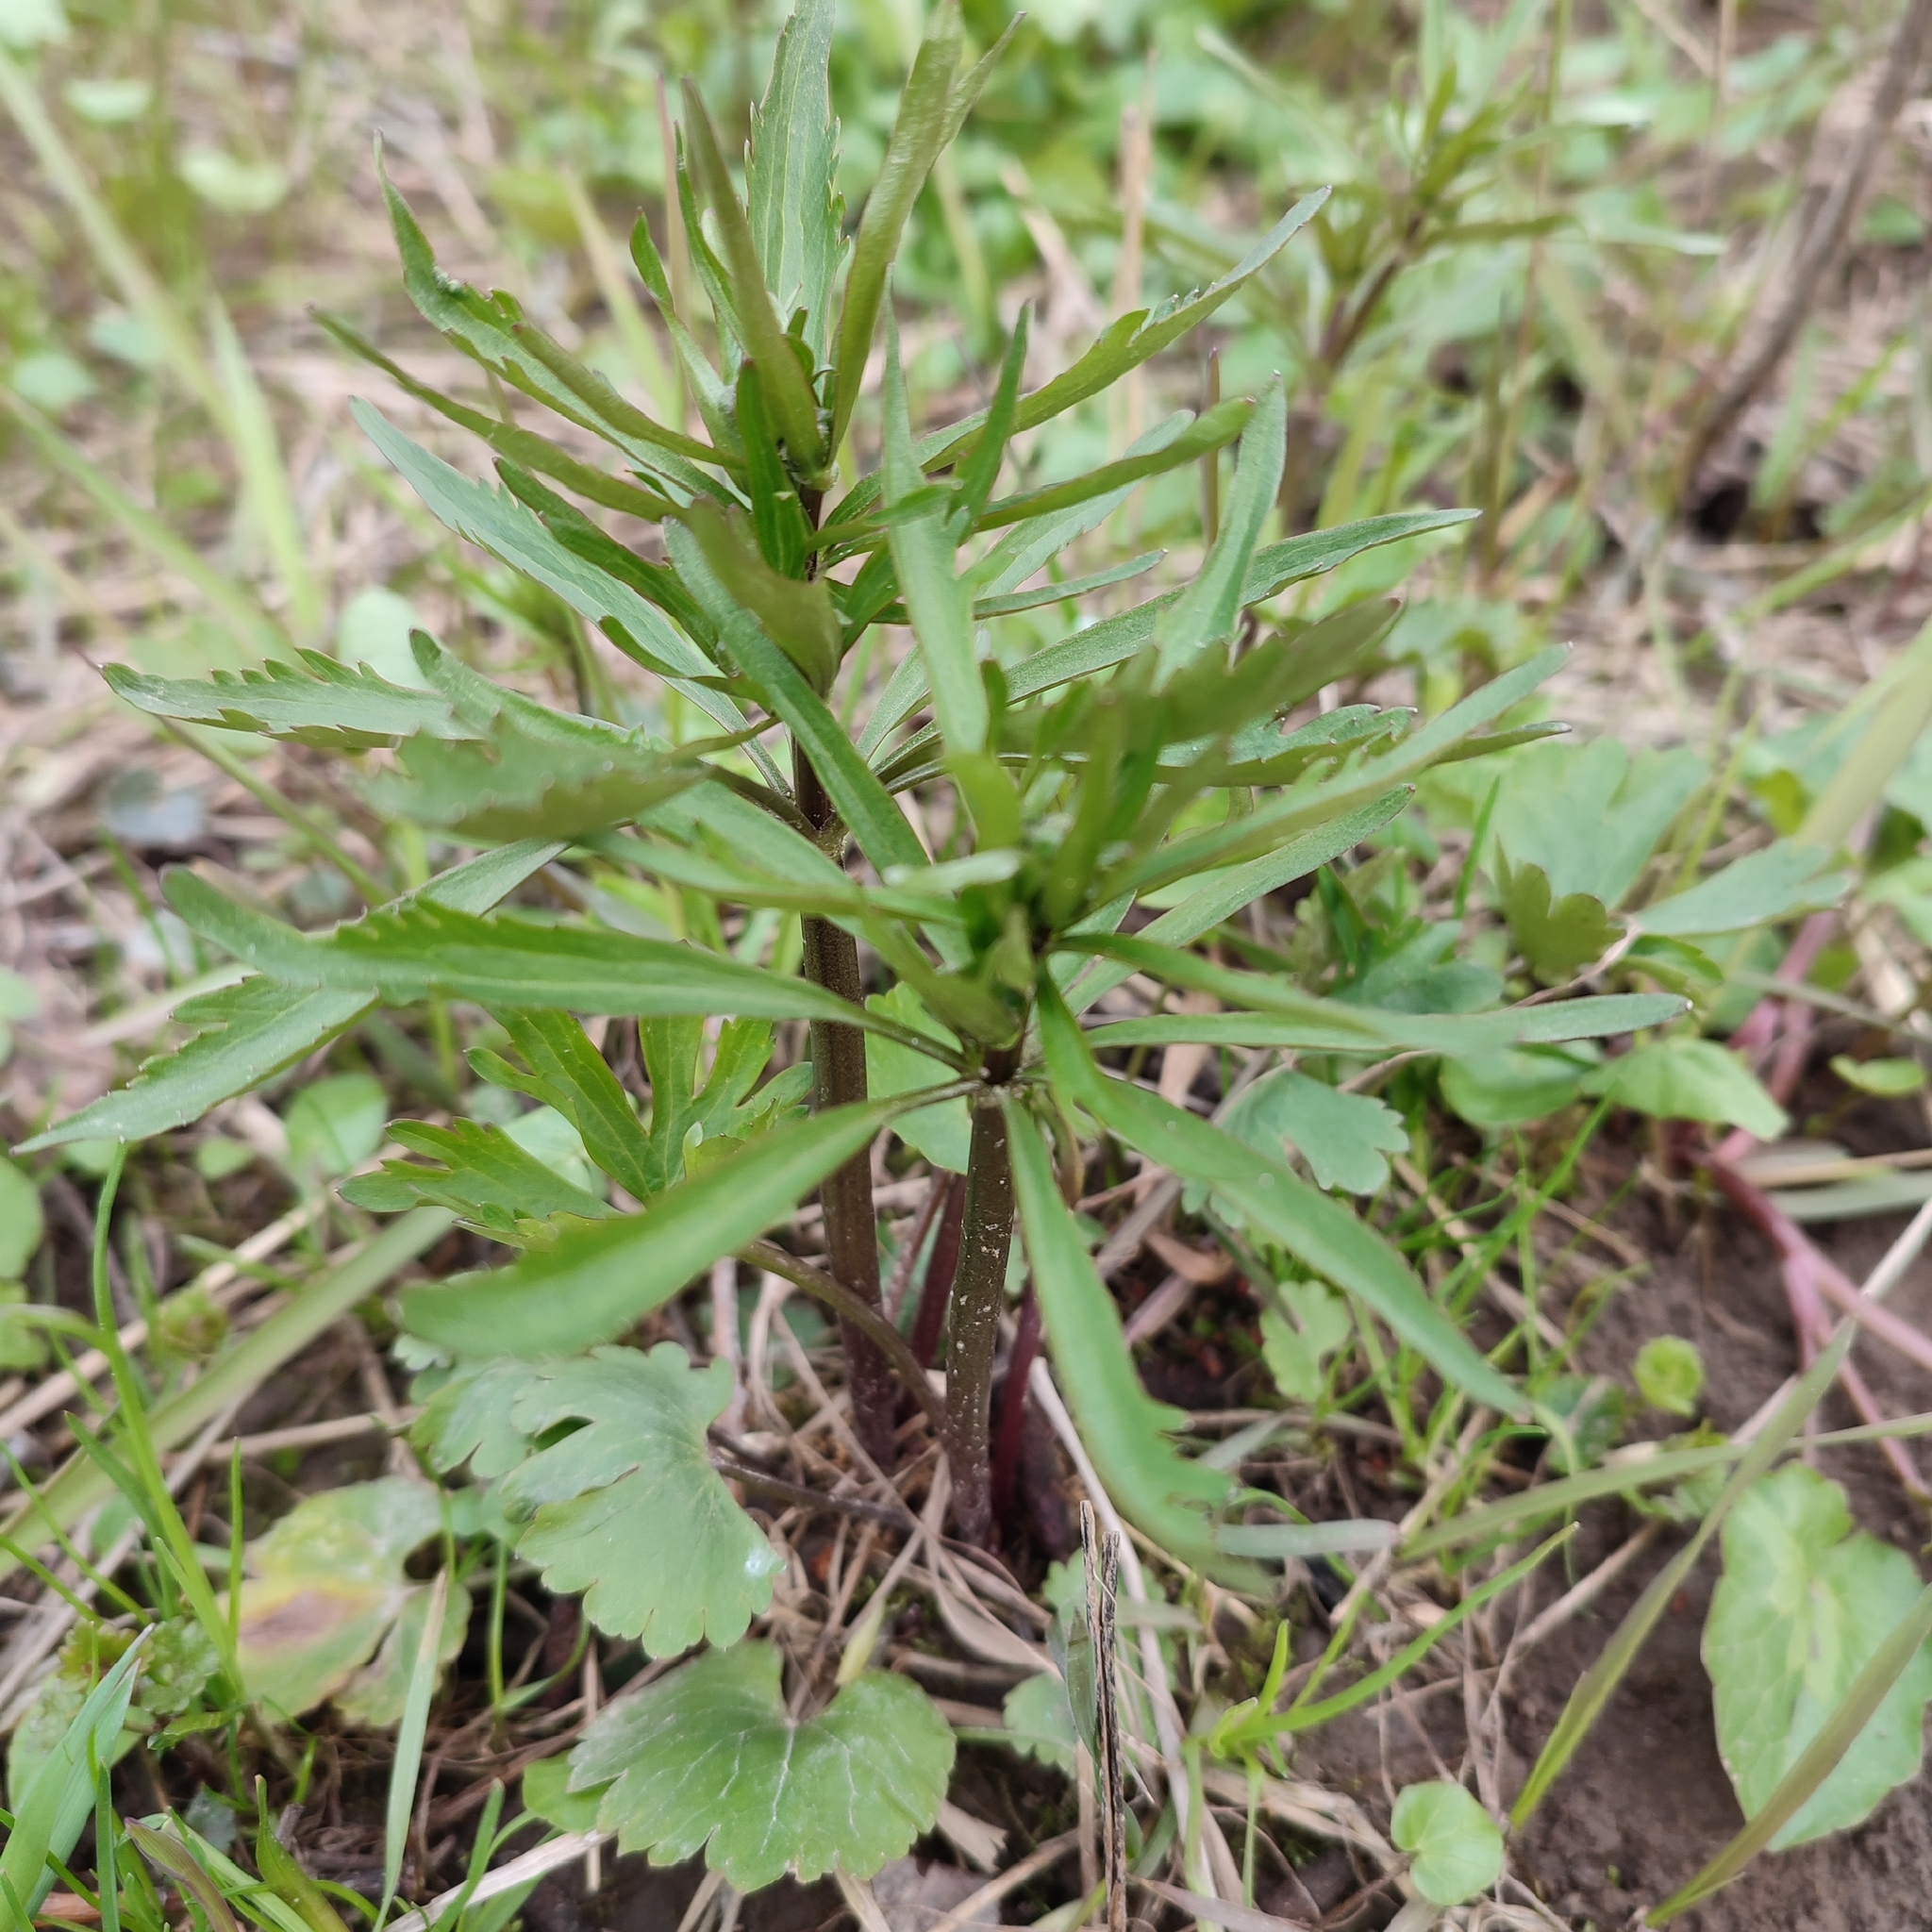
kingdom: Plantae
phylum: Tracheophyta
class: Magnoliopsida
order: Ranunculales
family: Ranunculaceae
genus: Ranunculus
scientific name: Ranunculus auricomus
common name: Goldilocks buttercup
